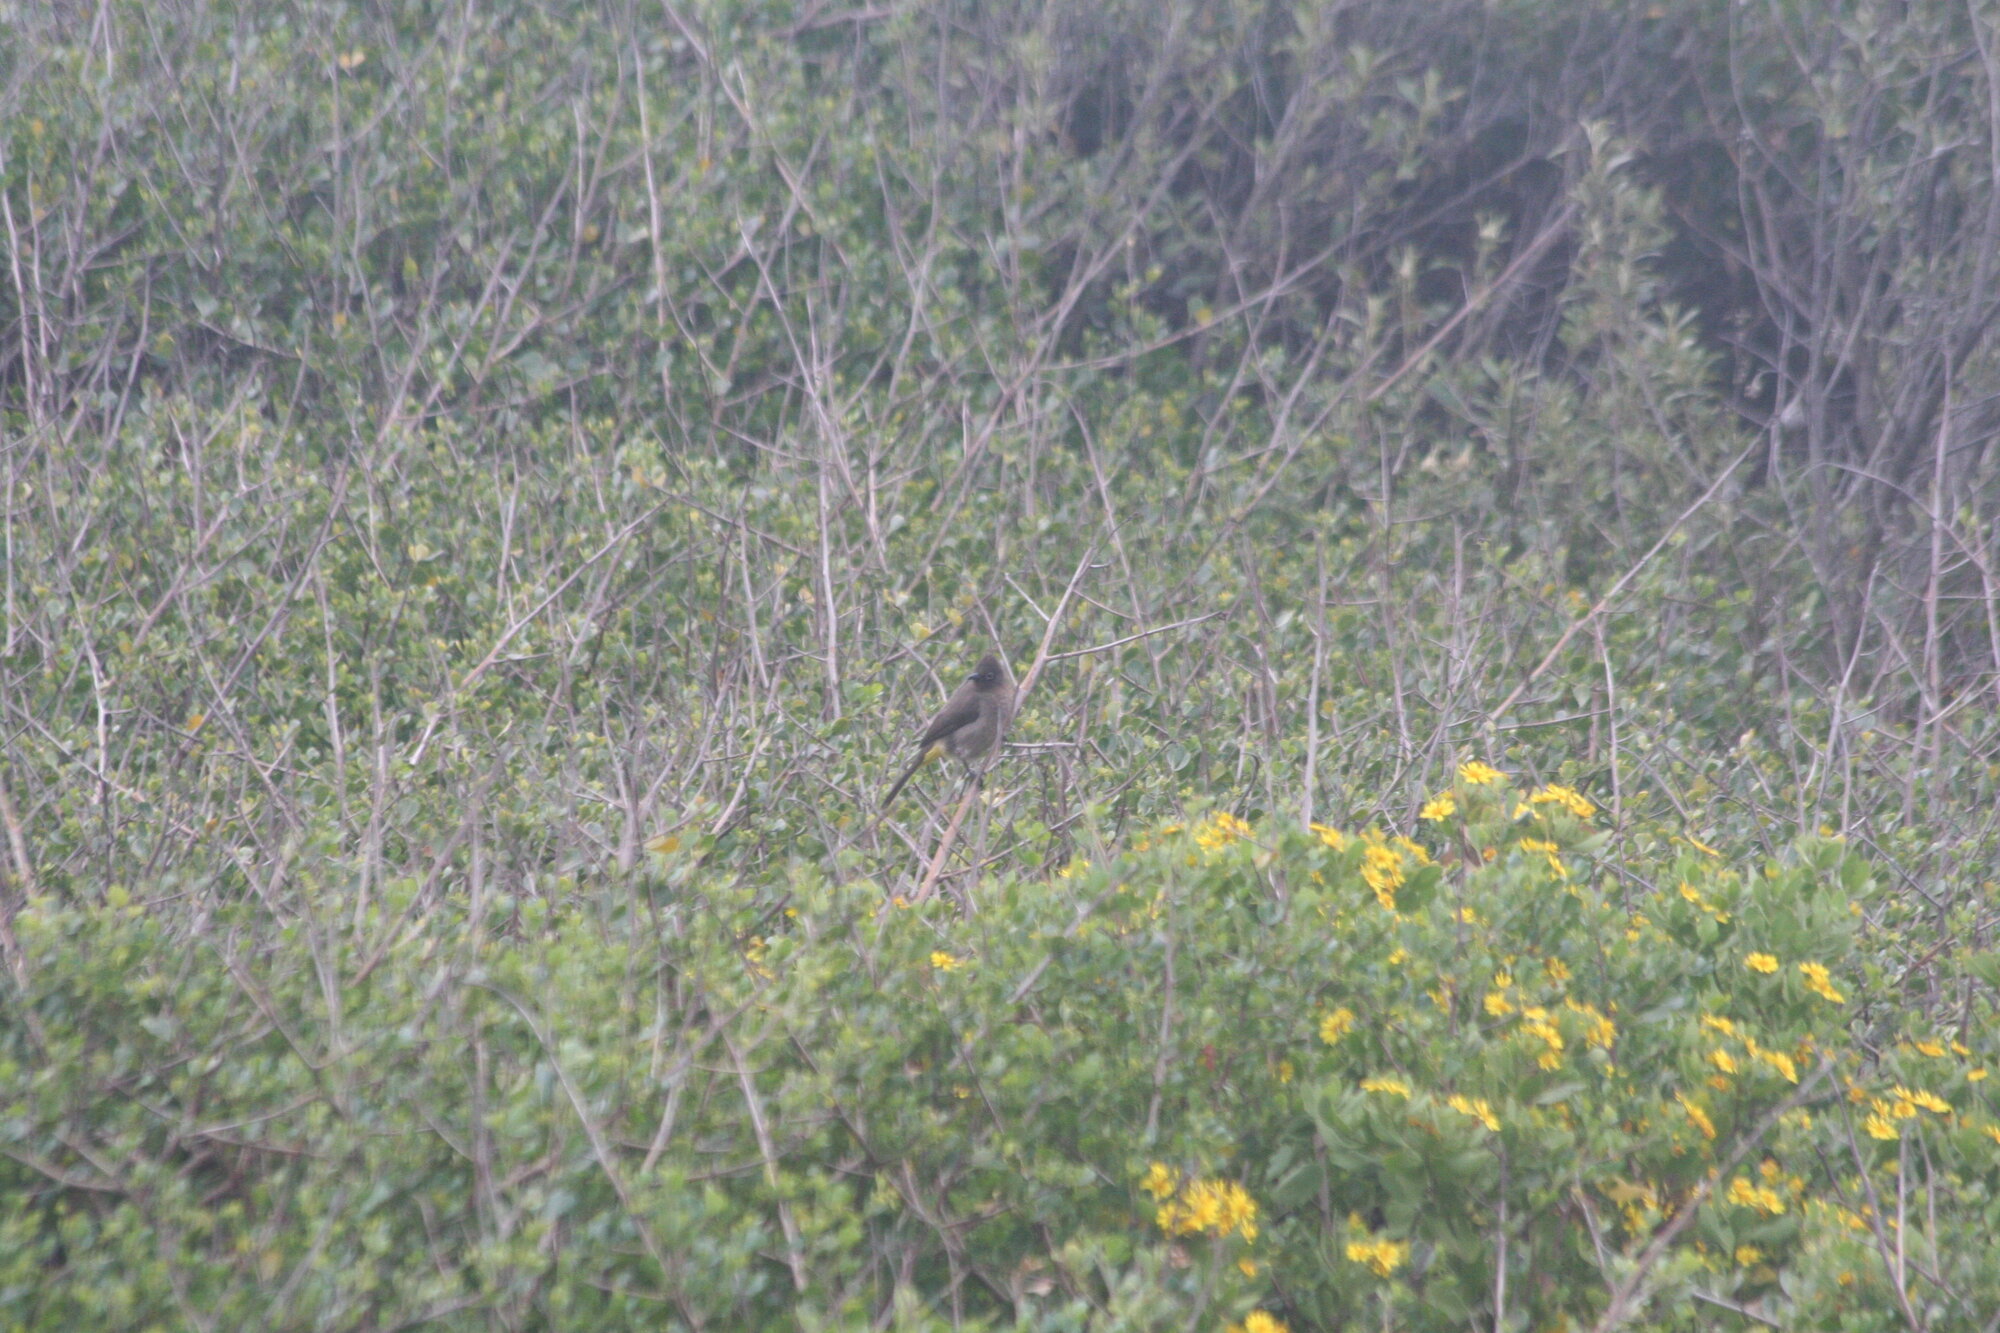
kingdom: Animalia
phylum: Chordata
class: Aves
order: Passeriformes
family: Pycnonotidae
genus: Pycnonotus
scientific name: Pycnonotus capensis
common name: Cape bulbul
